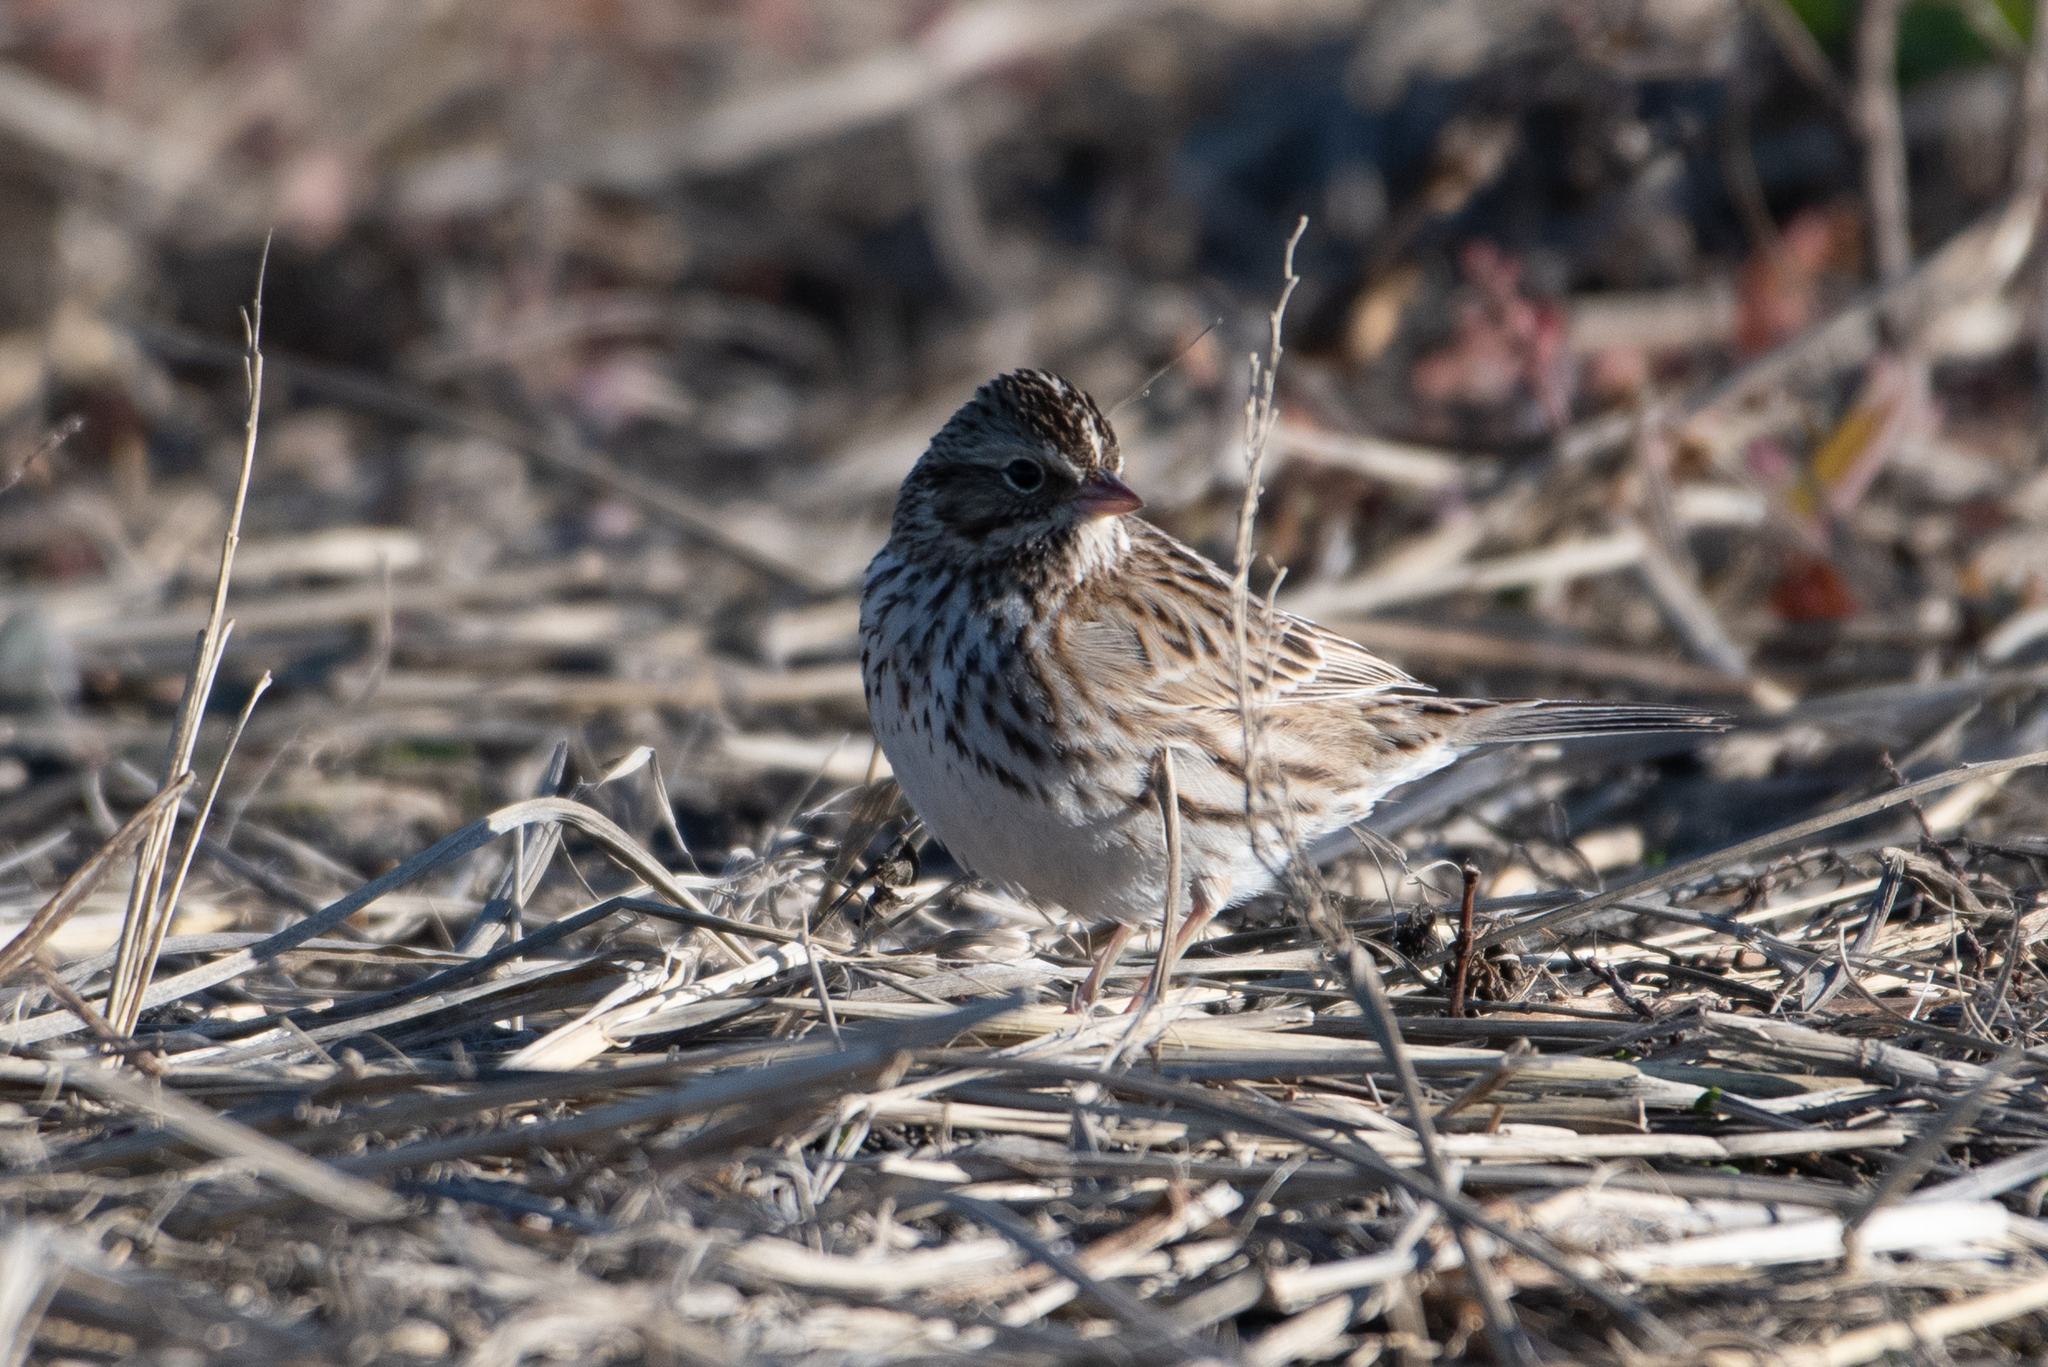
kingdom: Animalia
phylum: Chordata
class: Aves
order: Passeriformes
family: Passerellidae
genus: Passerculus
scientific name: Passerculus sandwichensis
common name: Savannah sparrow
